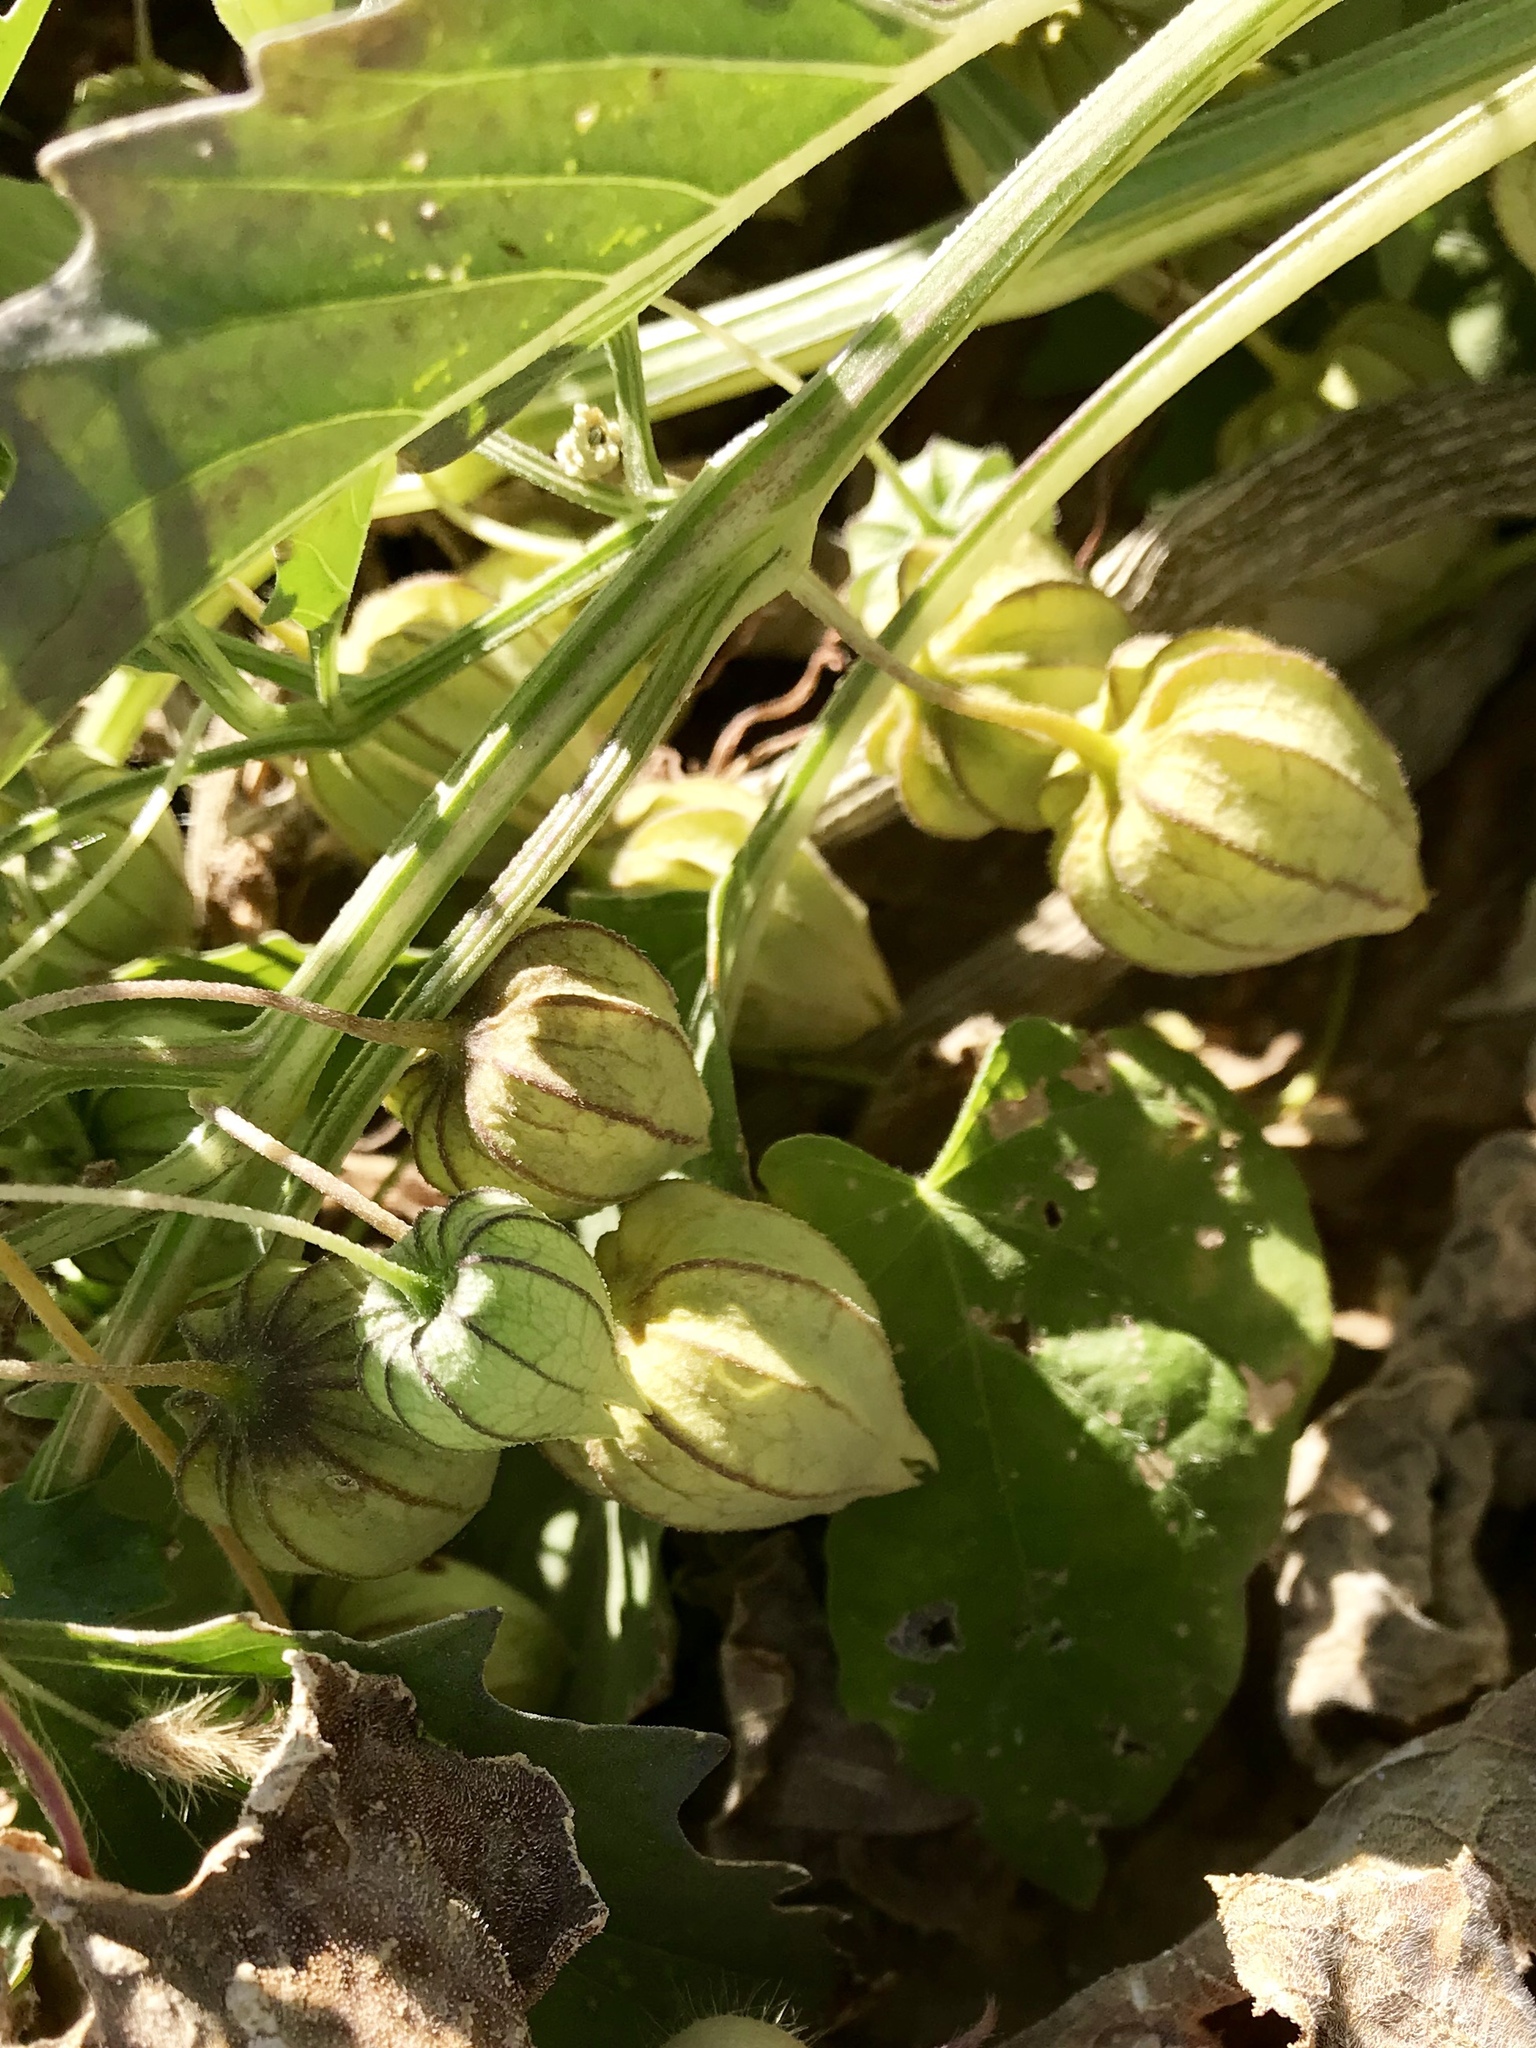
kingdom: Plantae
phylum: Tracheophyta
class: Magnoliopsida
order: Solanales
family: Solanaceae
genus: Physalis
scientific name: Physalis acutifolia
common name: Wright's ground-cherry
